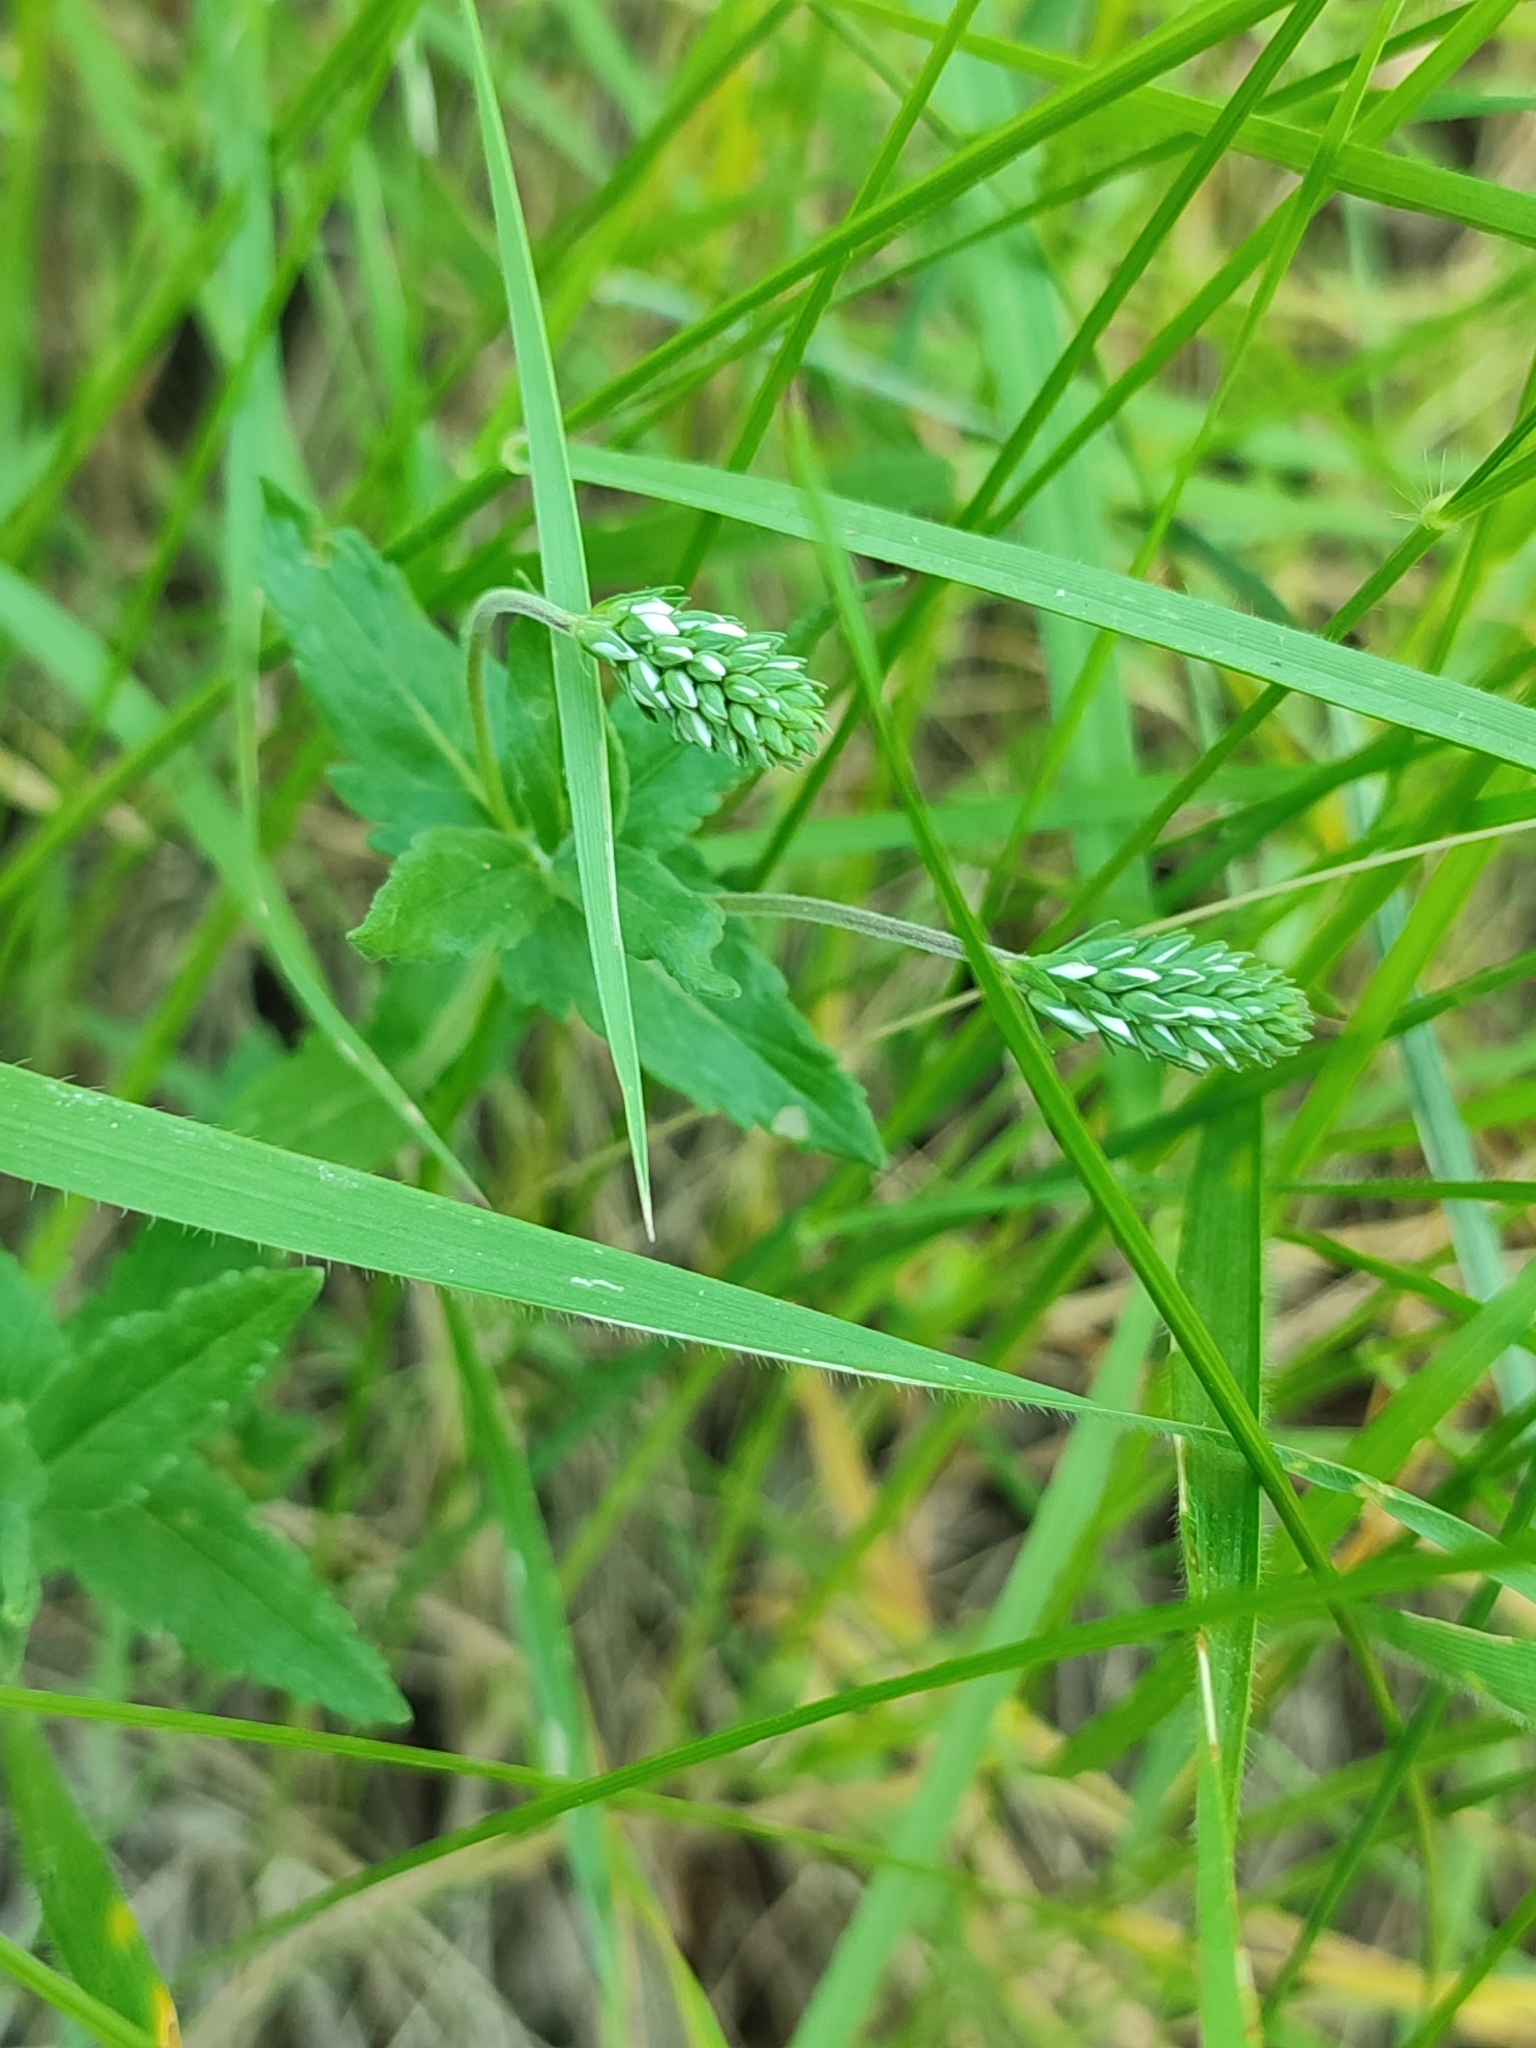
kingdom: Plantae
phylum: Tracheophyta
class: Magnoliopsida
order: Lamiales
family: Plantaginaceae
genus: Veronica
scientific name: Veronica prostrata
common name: Prostrate speedwell
